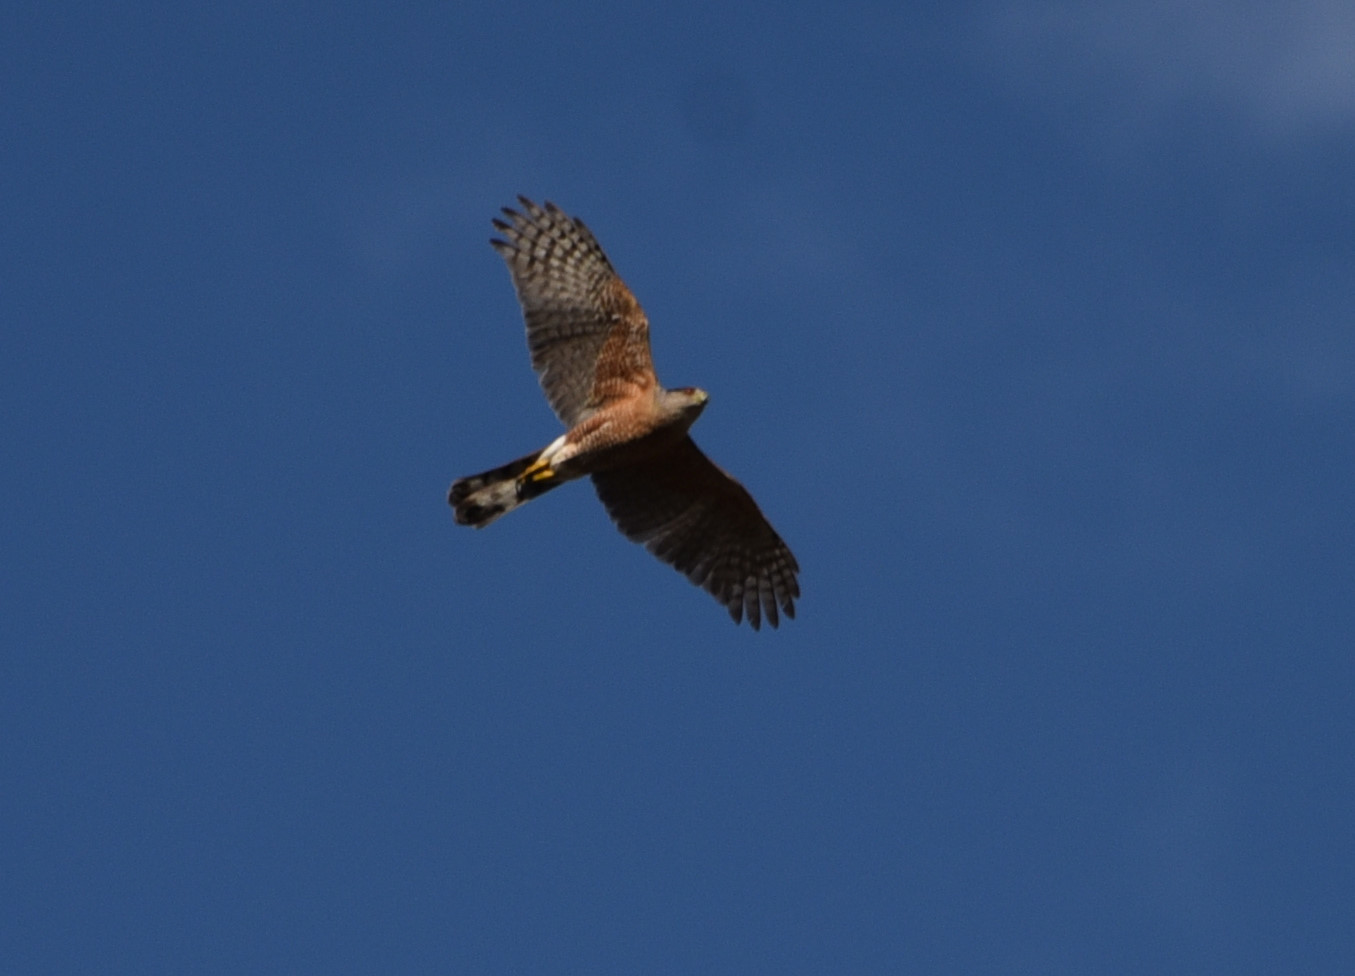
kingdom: Animalia
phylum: Chordata
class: Aves
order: Accipitriformes
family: Accipitridae
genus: Accipiter
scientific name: Accipiter cooperii
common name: Cooper's hawk
